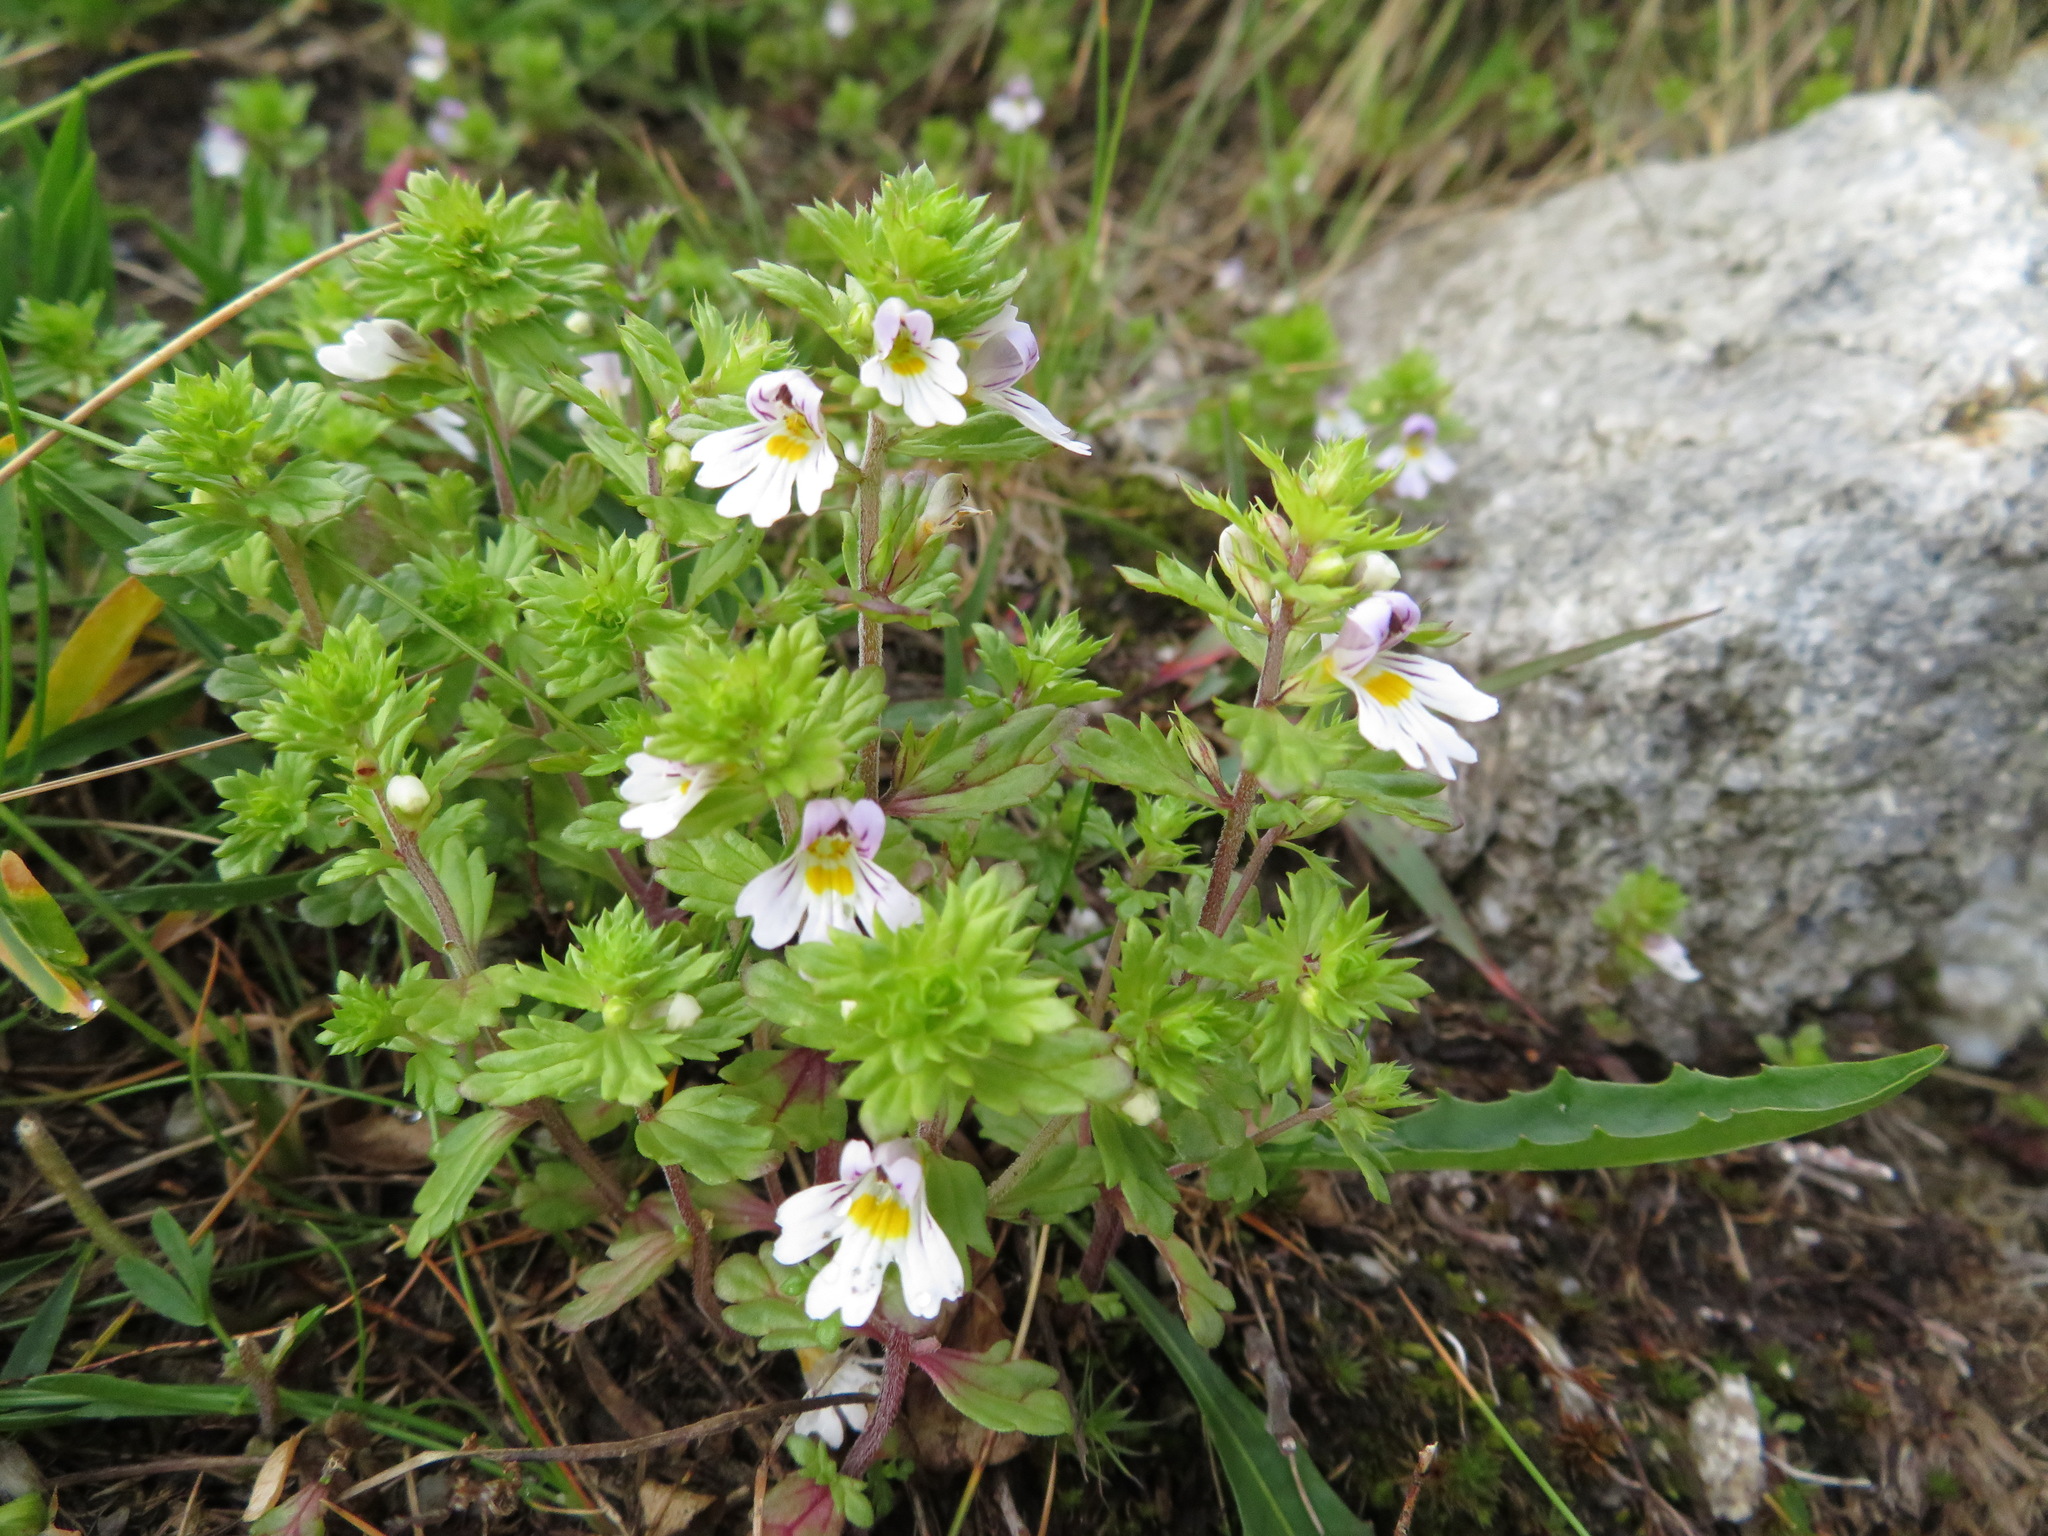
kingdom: Plantae
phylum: Tracheophyta
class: Magnoliopsida
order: Lamiales
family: Orobanchaceae
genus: Euphrasia
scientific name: Euphrasia alpina
